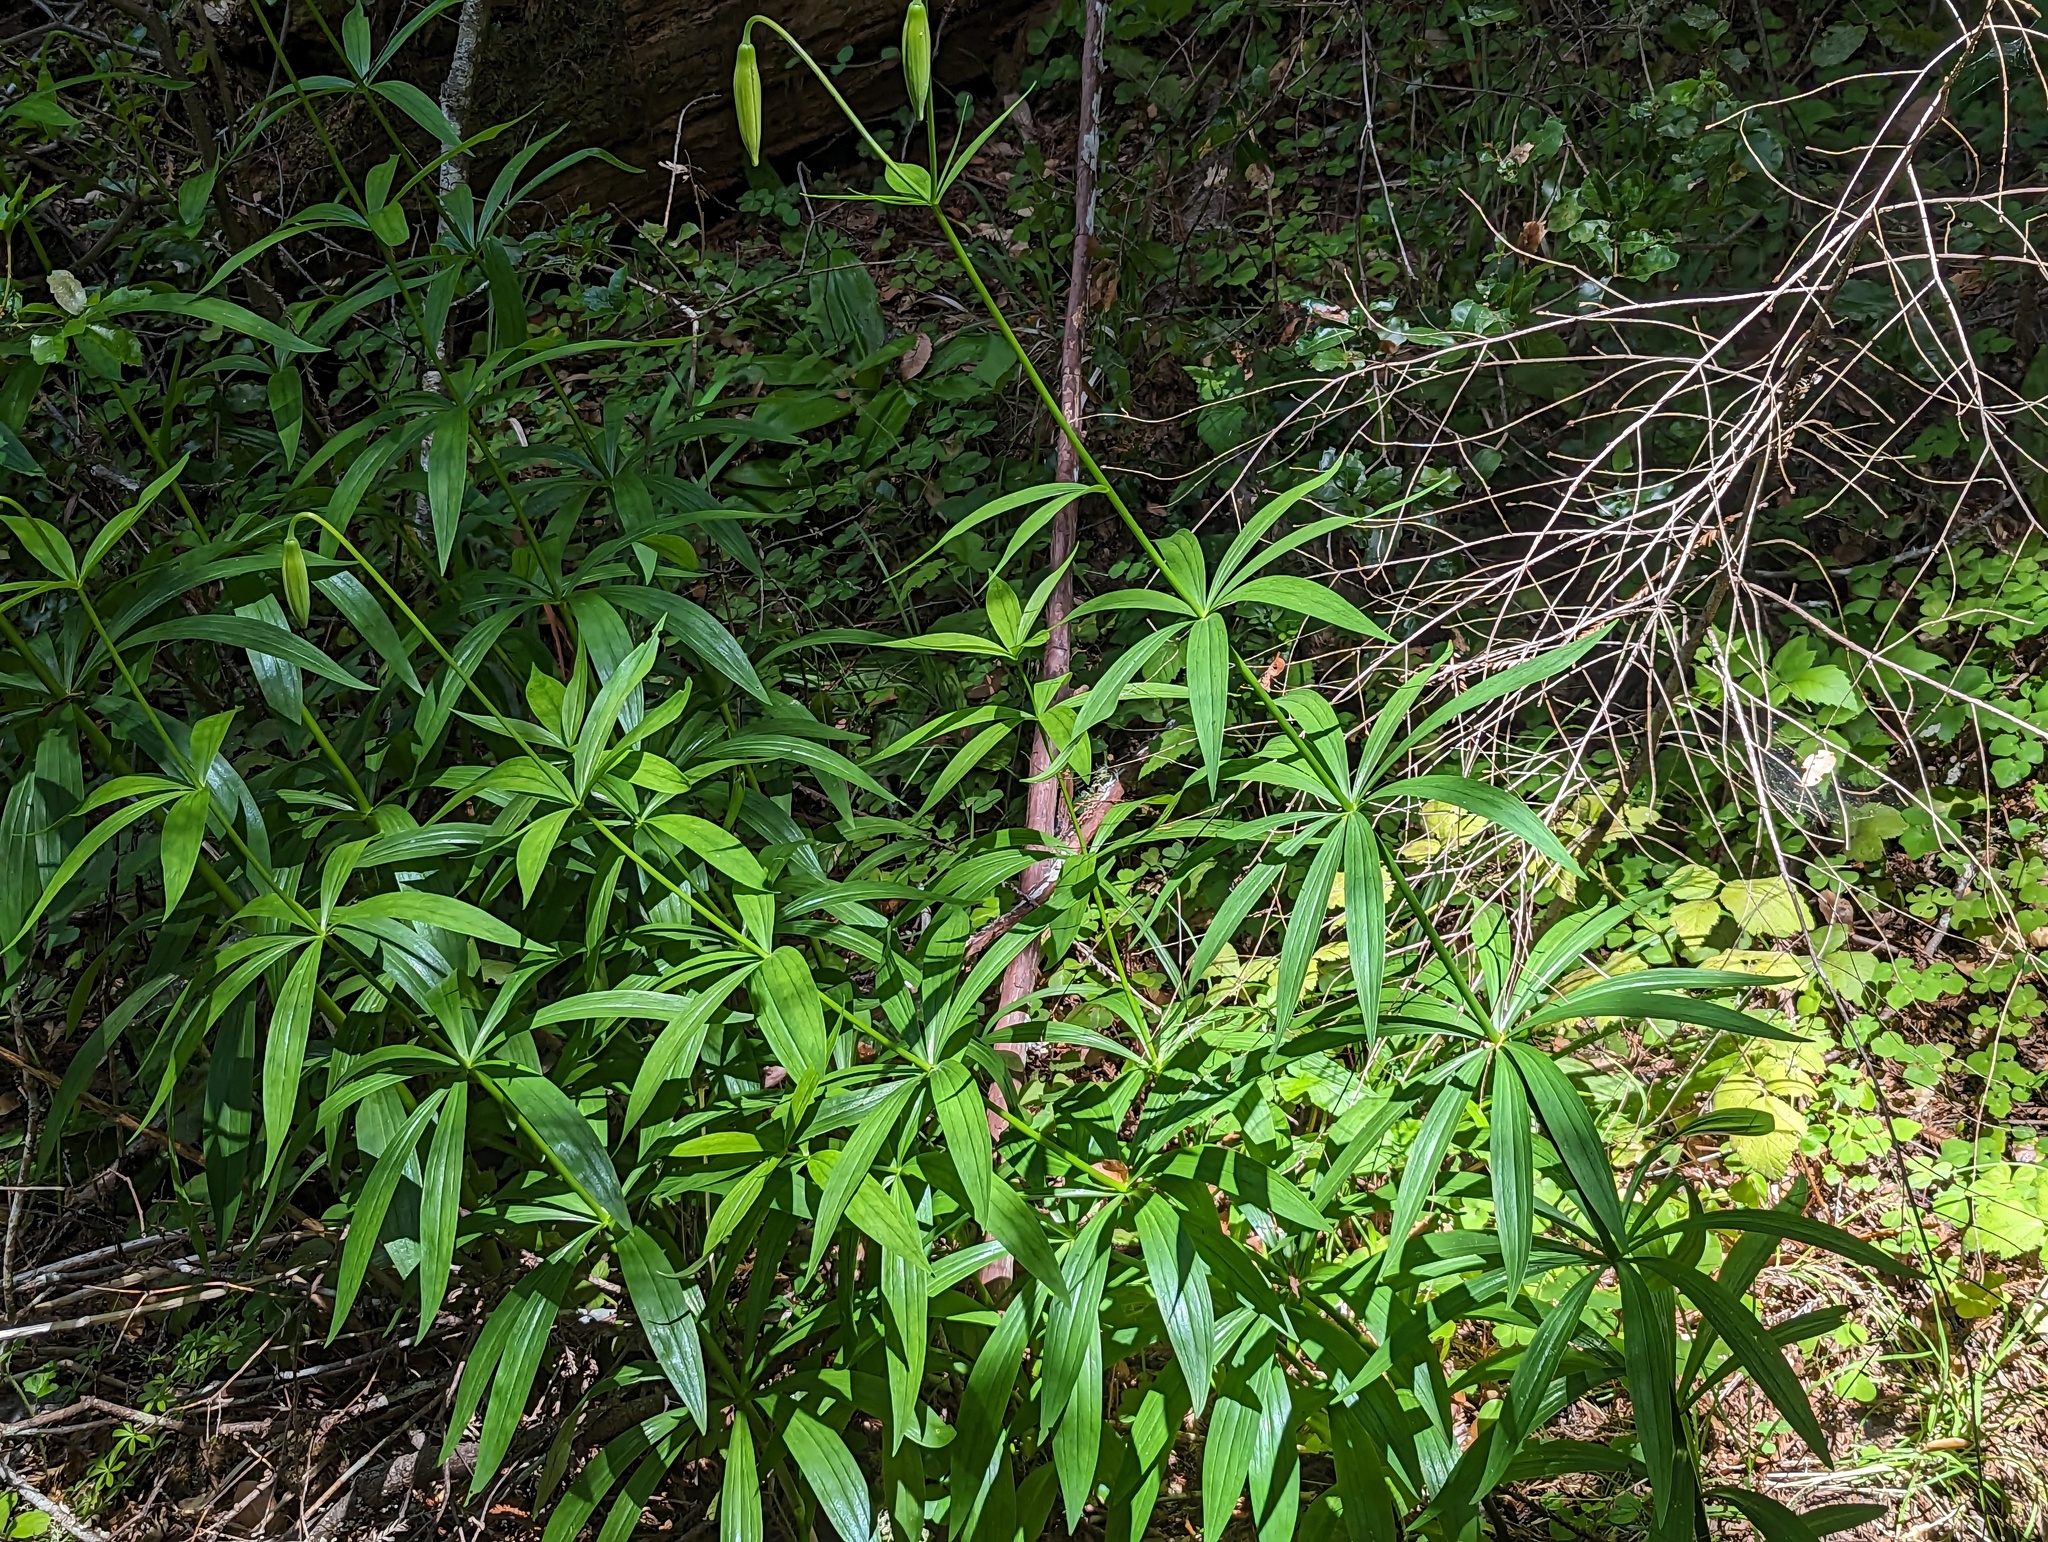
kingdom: Plantae
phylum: Tracheophyta
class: Liliopsida
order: Liliales
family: Liliaceae
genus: Lilium
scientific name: Lilium pardalinum
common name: Panther lily
